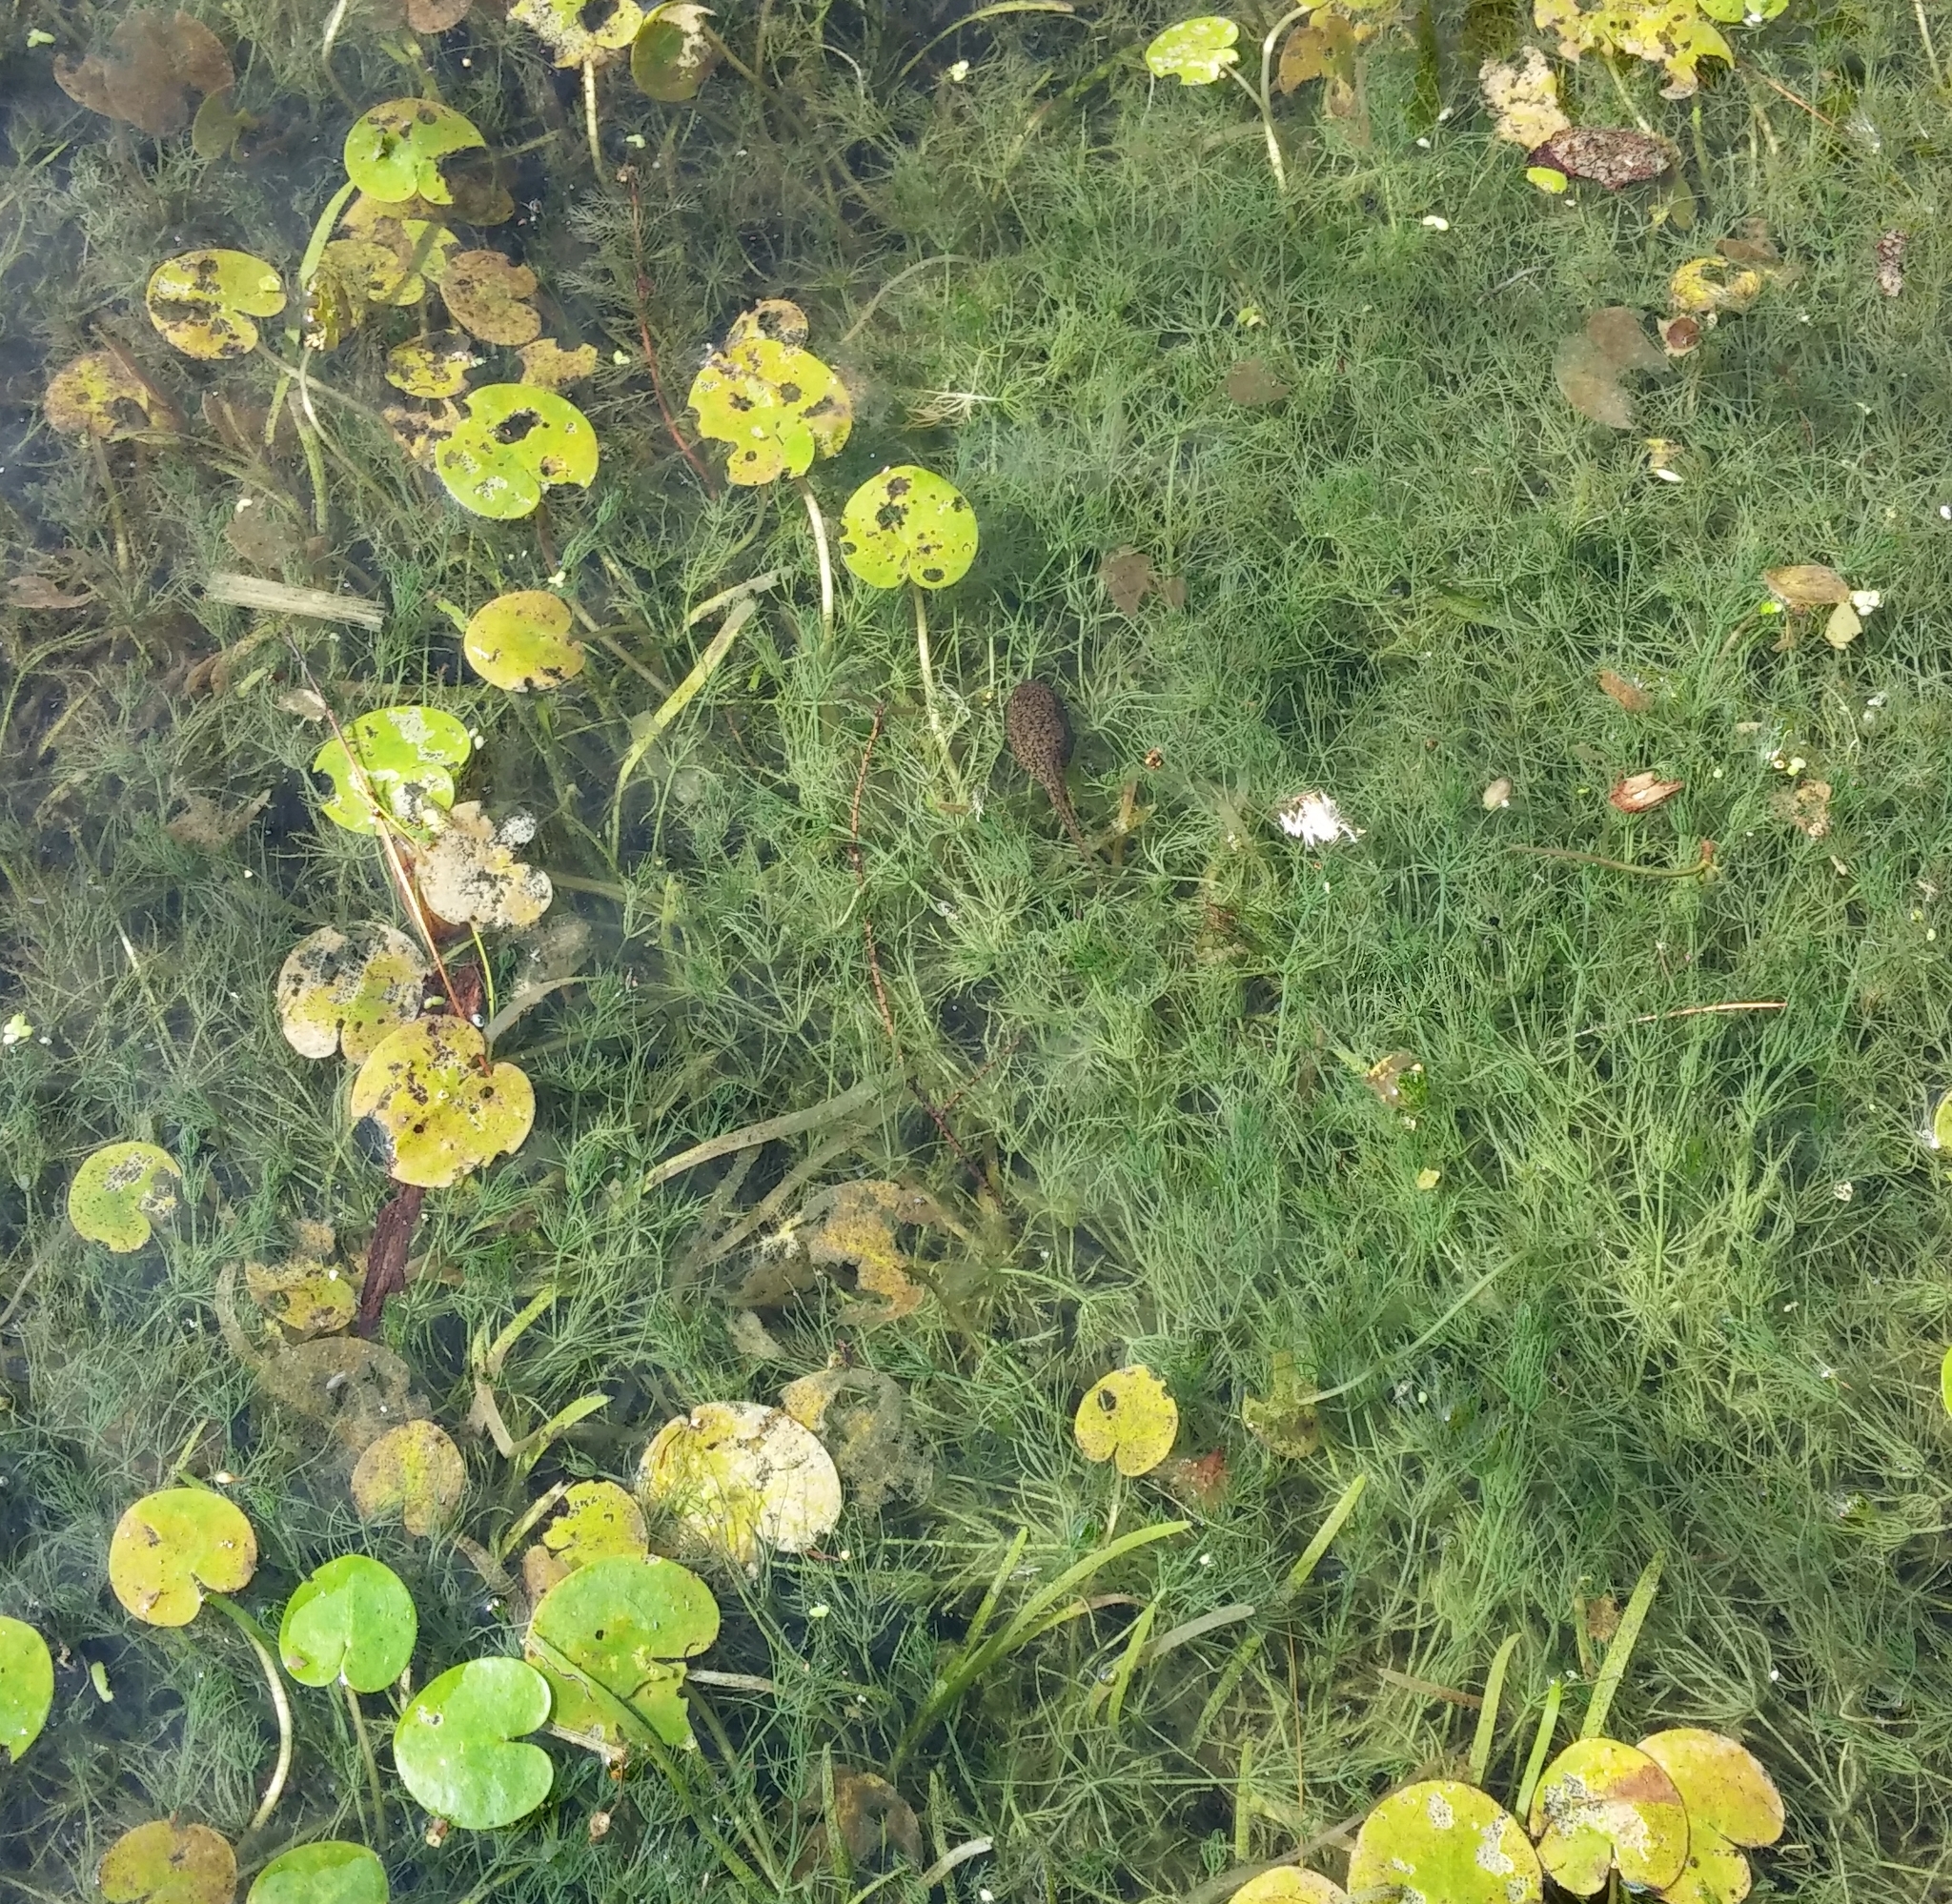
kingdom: Plantae
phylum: Charophyta
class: Charophyceae
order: Charales
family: Characeae
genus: Chara
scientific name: Chara vulgaris
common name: Common stonewort
